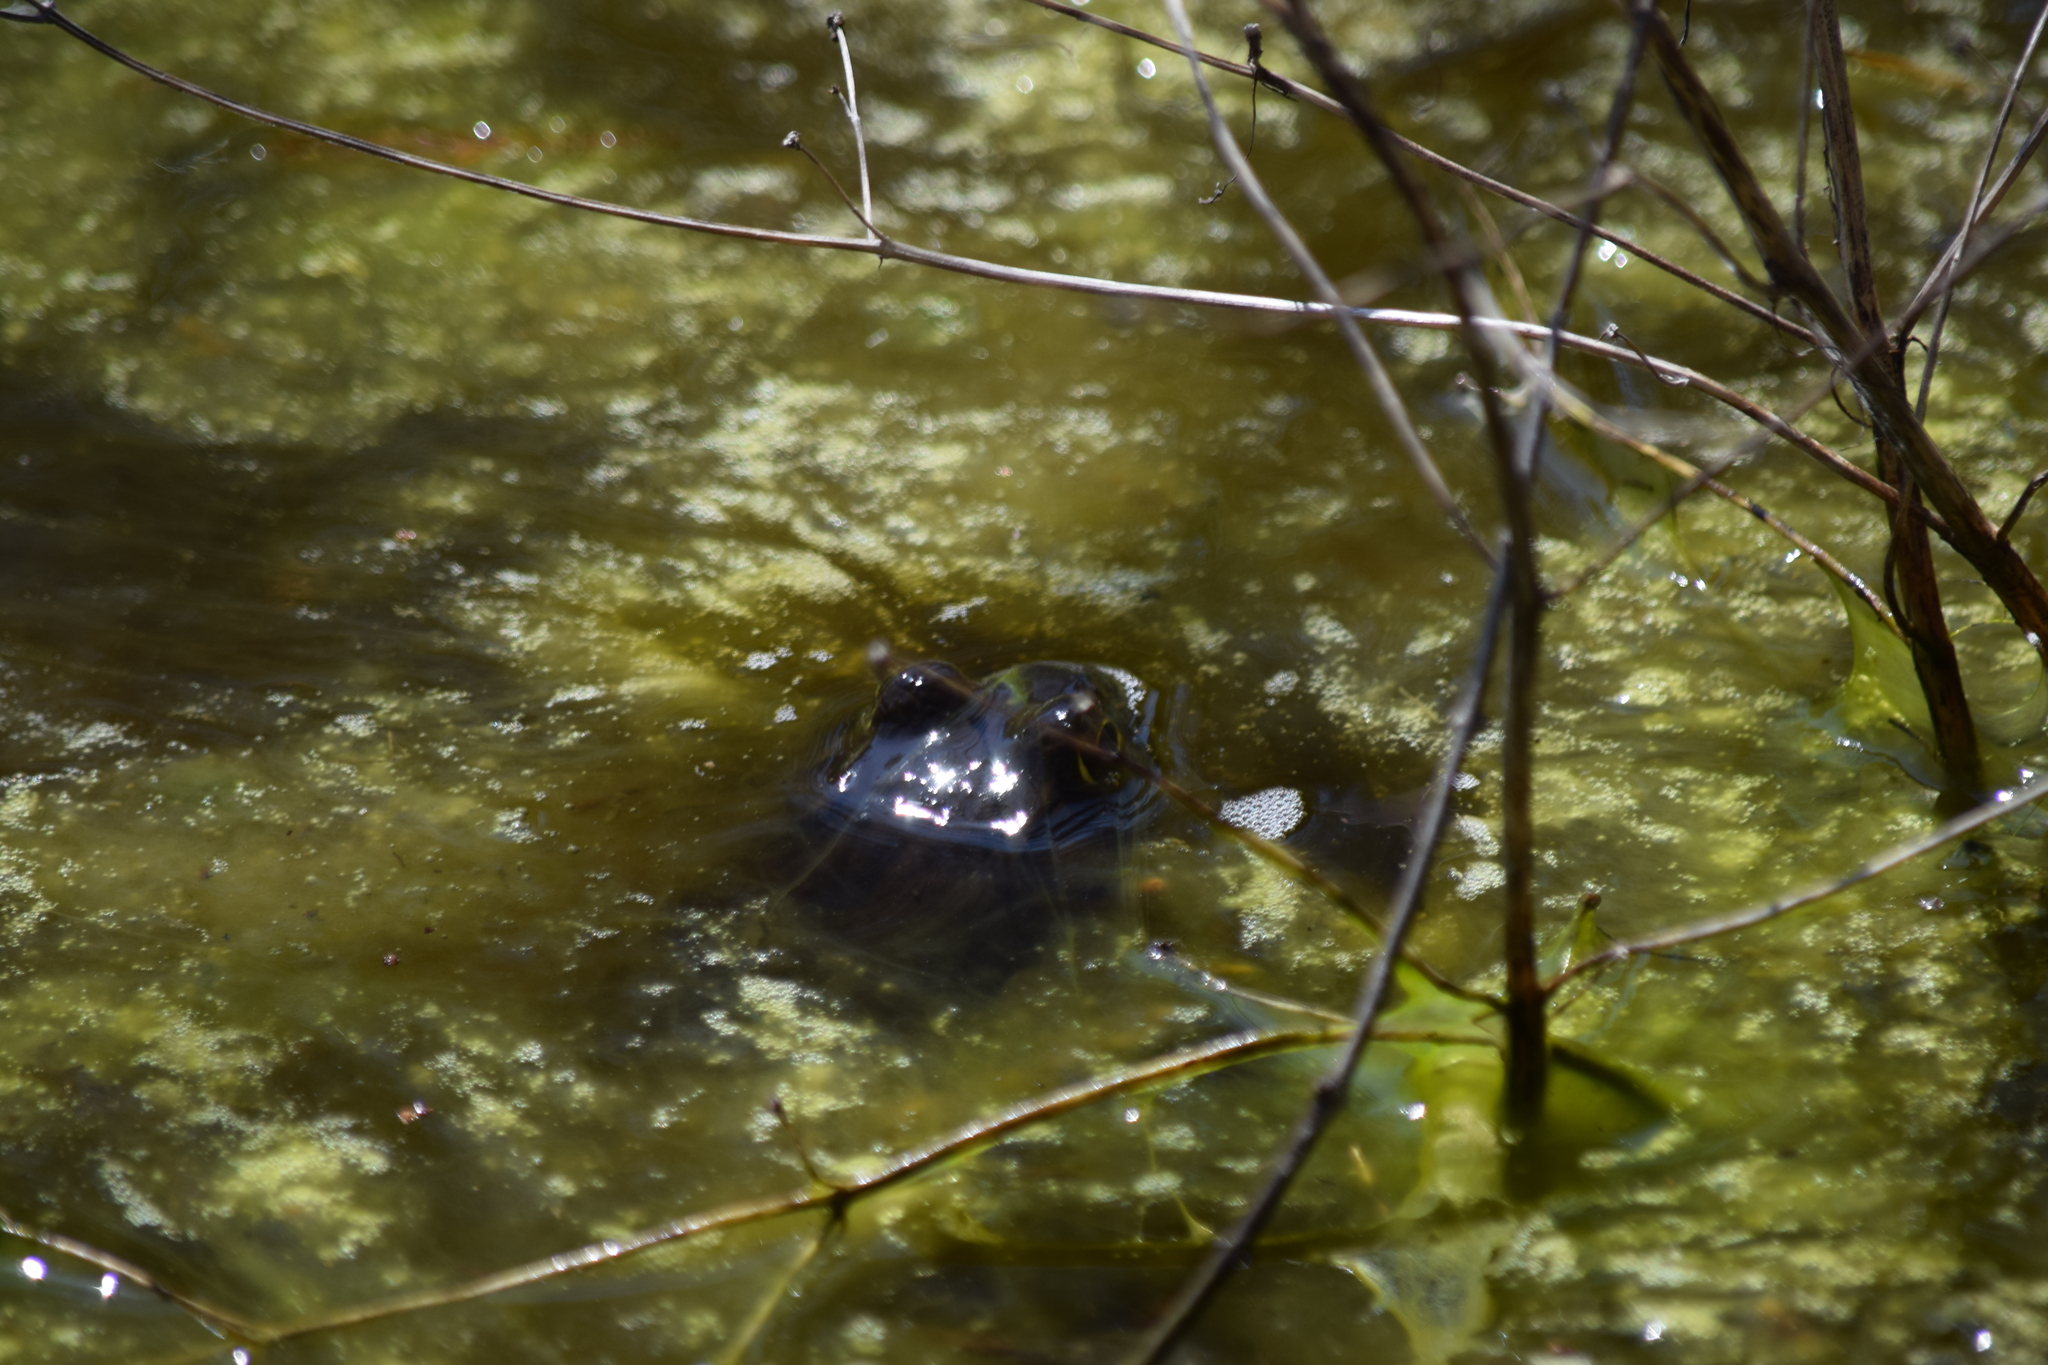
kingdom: Animalia
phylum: Chordata
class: Amphibia
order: Anura
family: Ranidae
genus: Lithobates
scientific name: Lithobates
